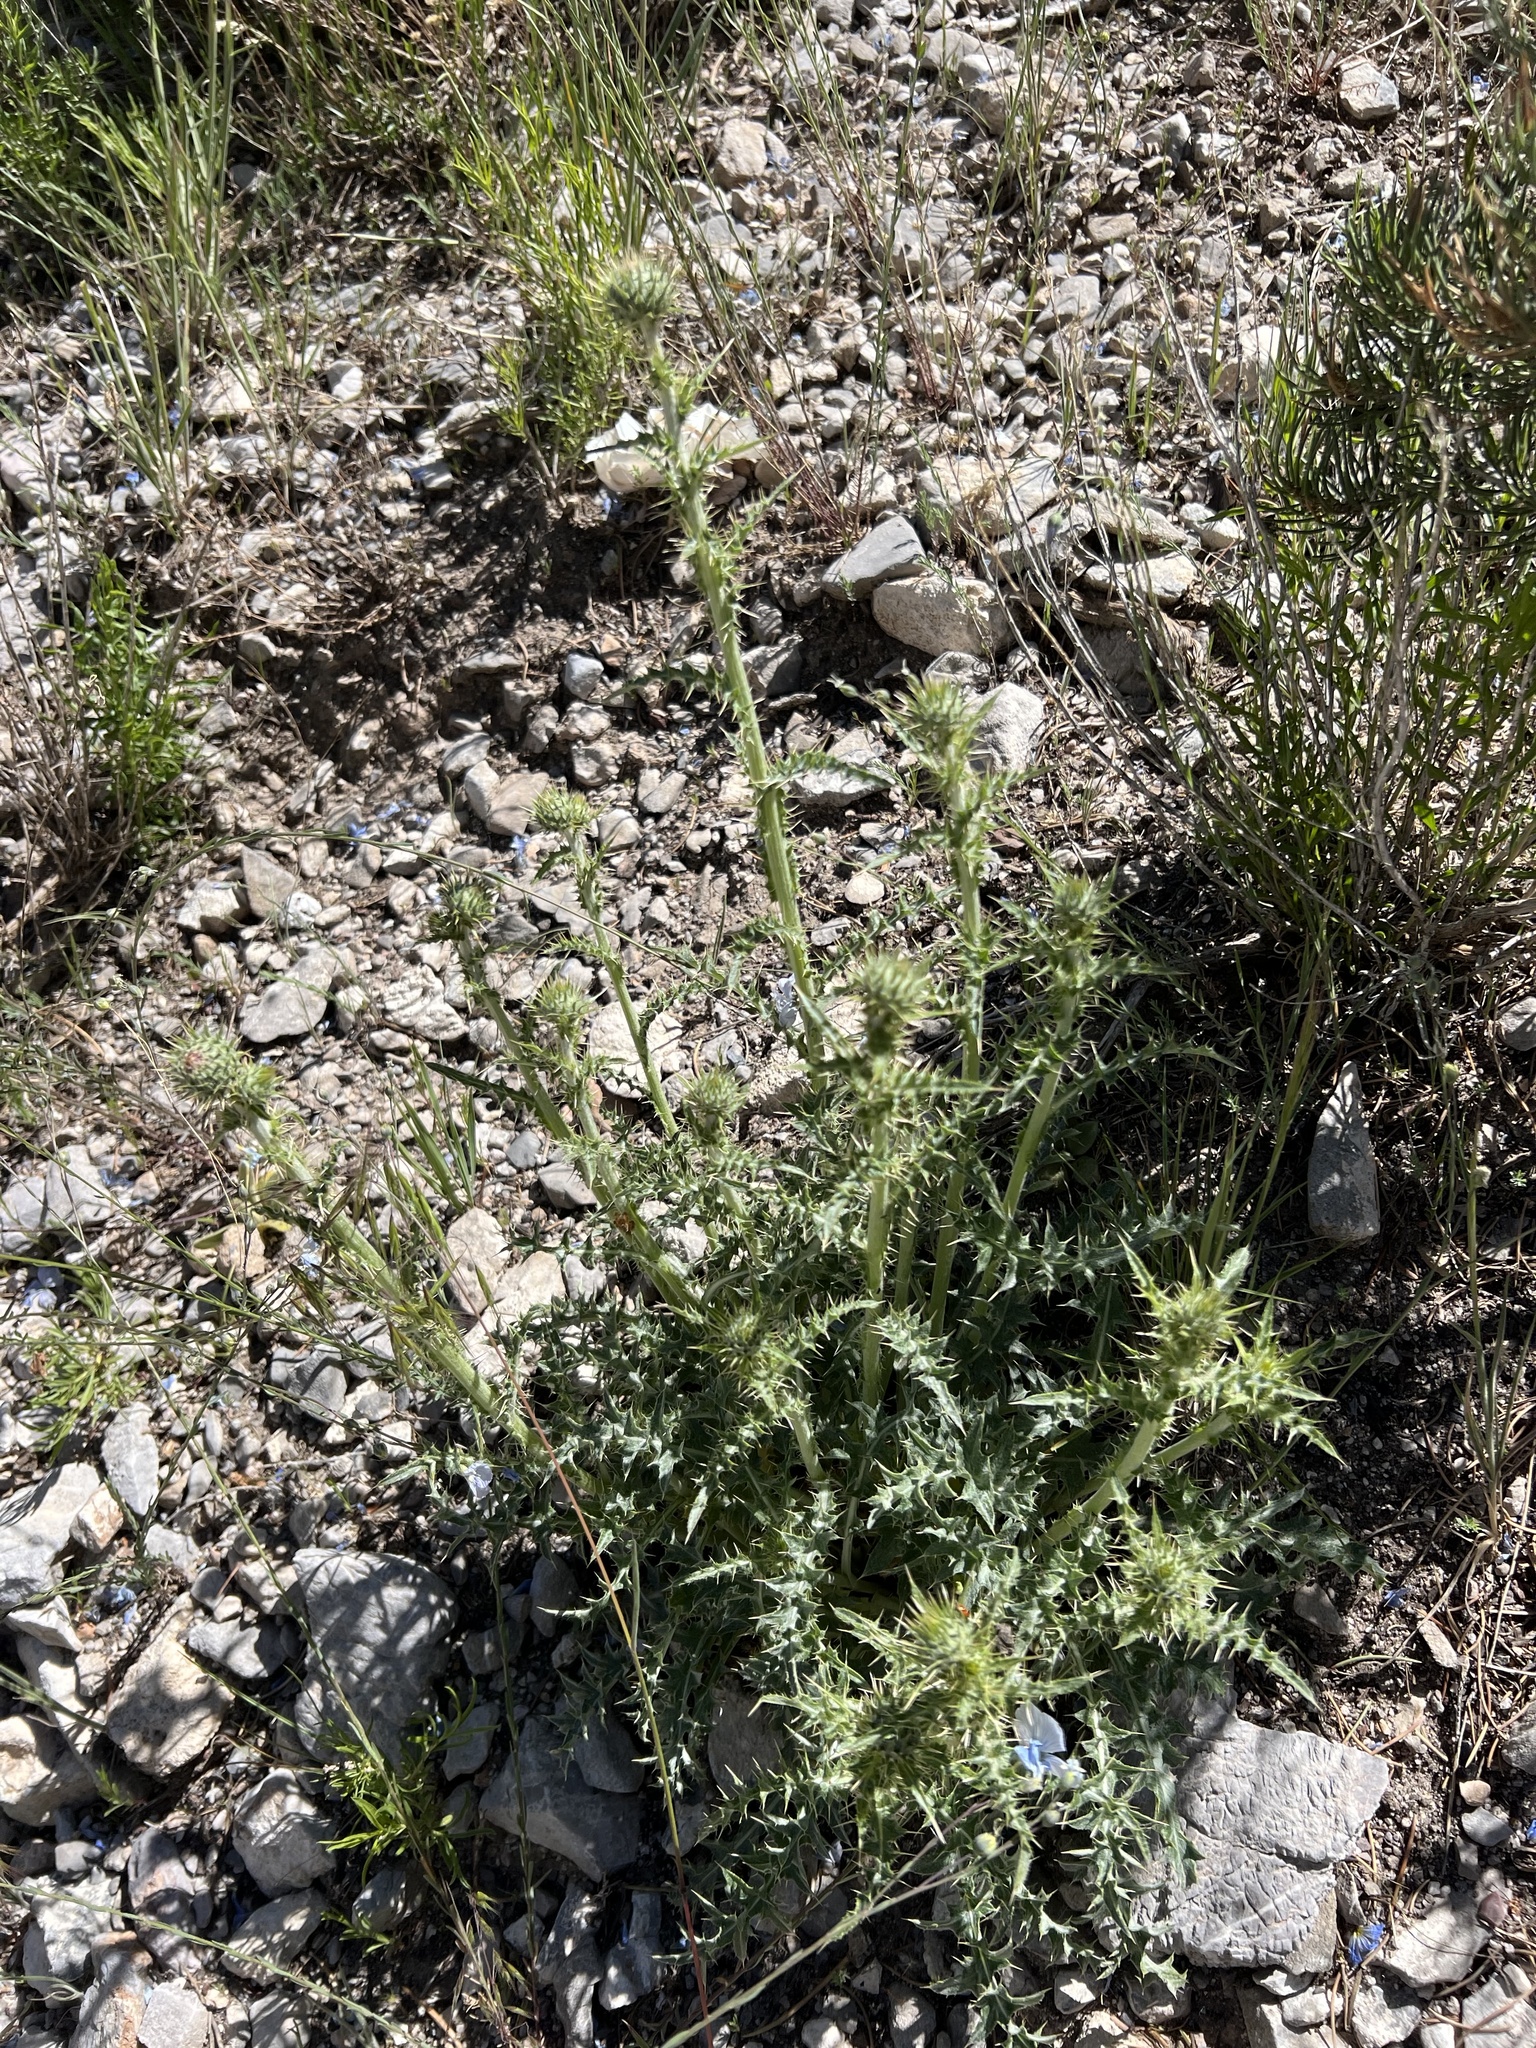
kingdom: Plantae
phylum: Tracheophyta
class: Magnoliopsida
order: Asterales
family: Asteraceae
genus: Cirsium
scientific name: Cirsium eatonii
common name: Eaton's thistle
